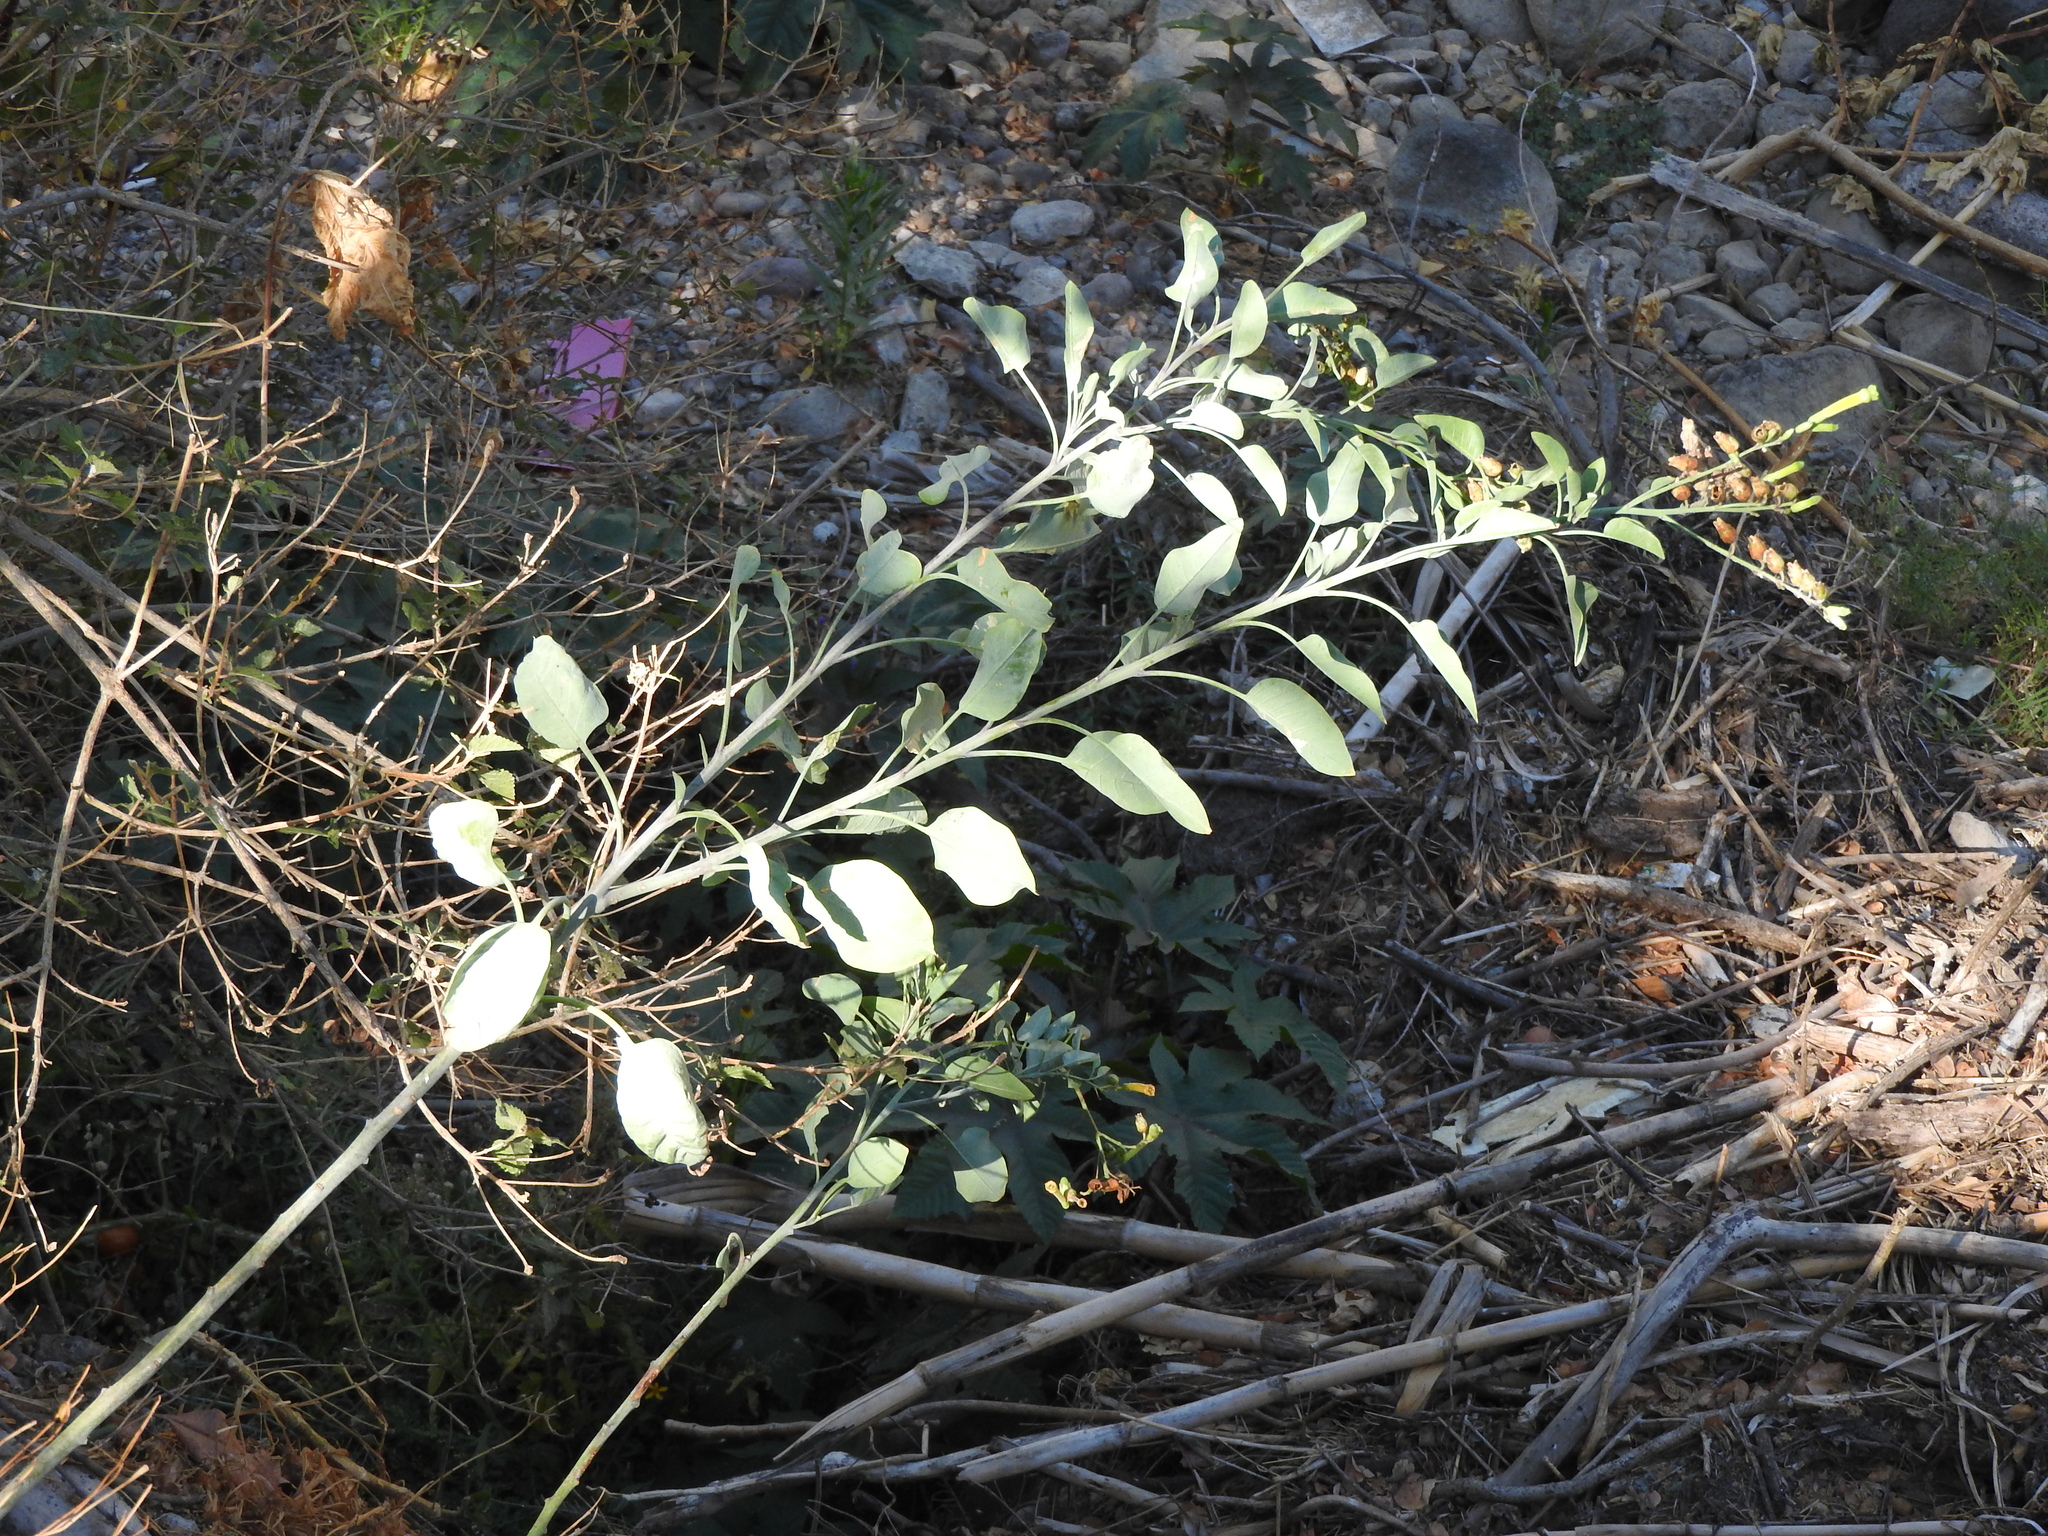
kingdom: Plantae
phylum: Tracheophyta
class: Magnoliopsida
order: Solanales
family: Solanaceae
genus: Nicotiana
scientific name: Nicotiana glauca
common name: Tree tobacco
